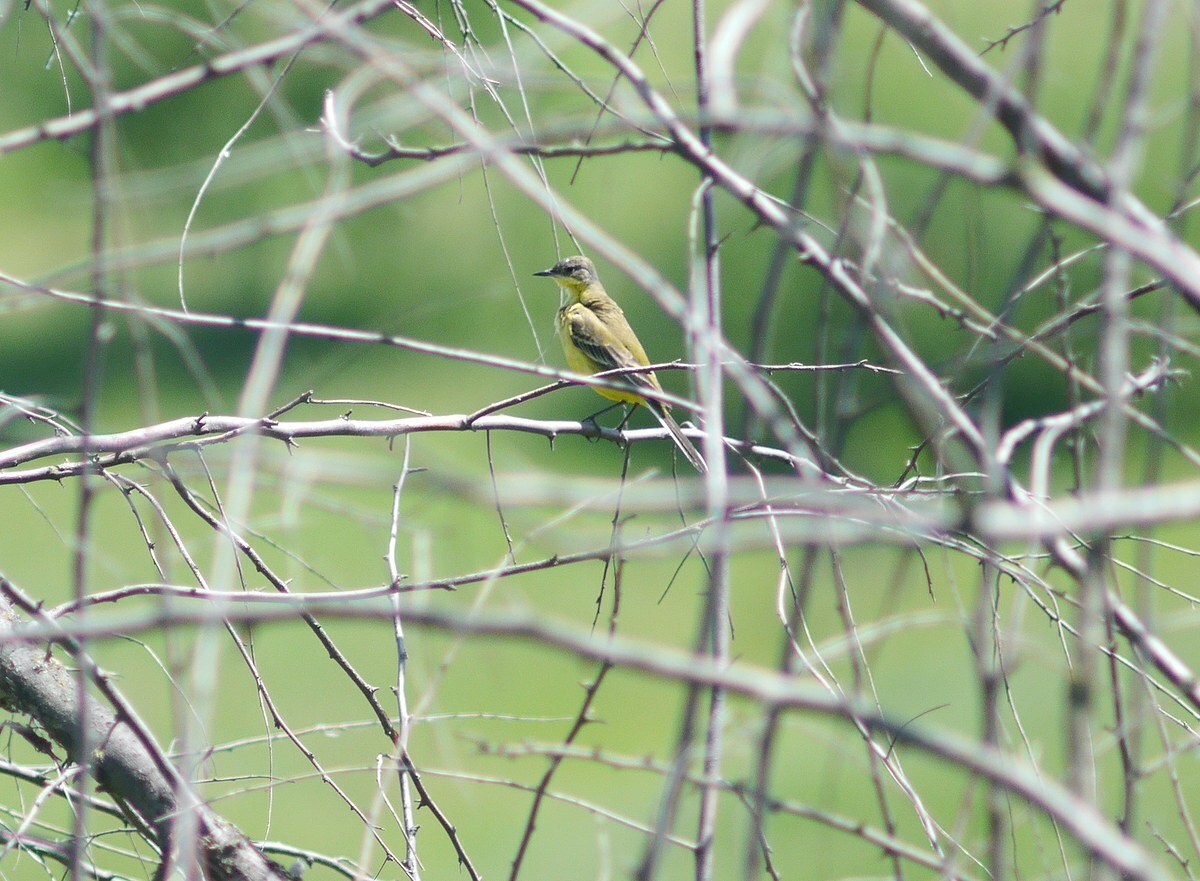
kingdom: Animalia
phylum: Chordata
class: Aves
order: Passeriformes
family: Motacillidae
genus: Motacilla
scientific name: Motacilla flava
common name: Western yellow wagtail
